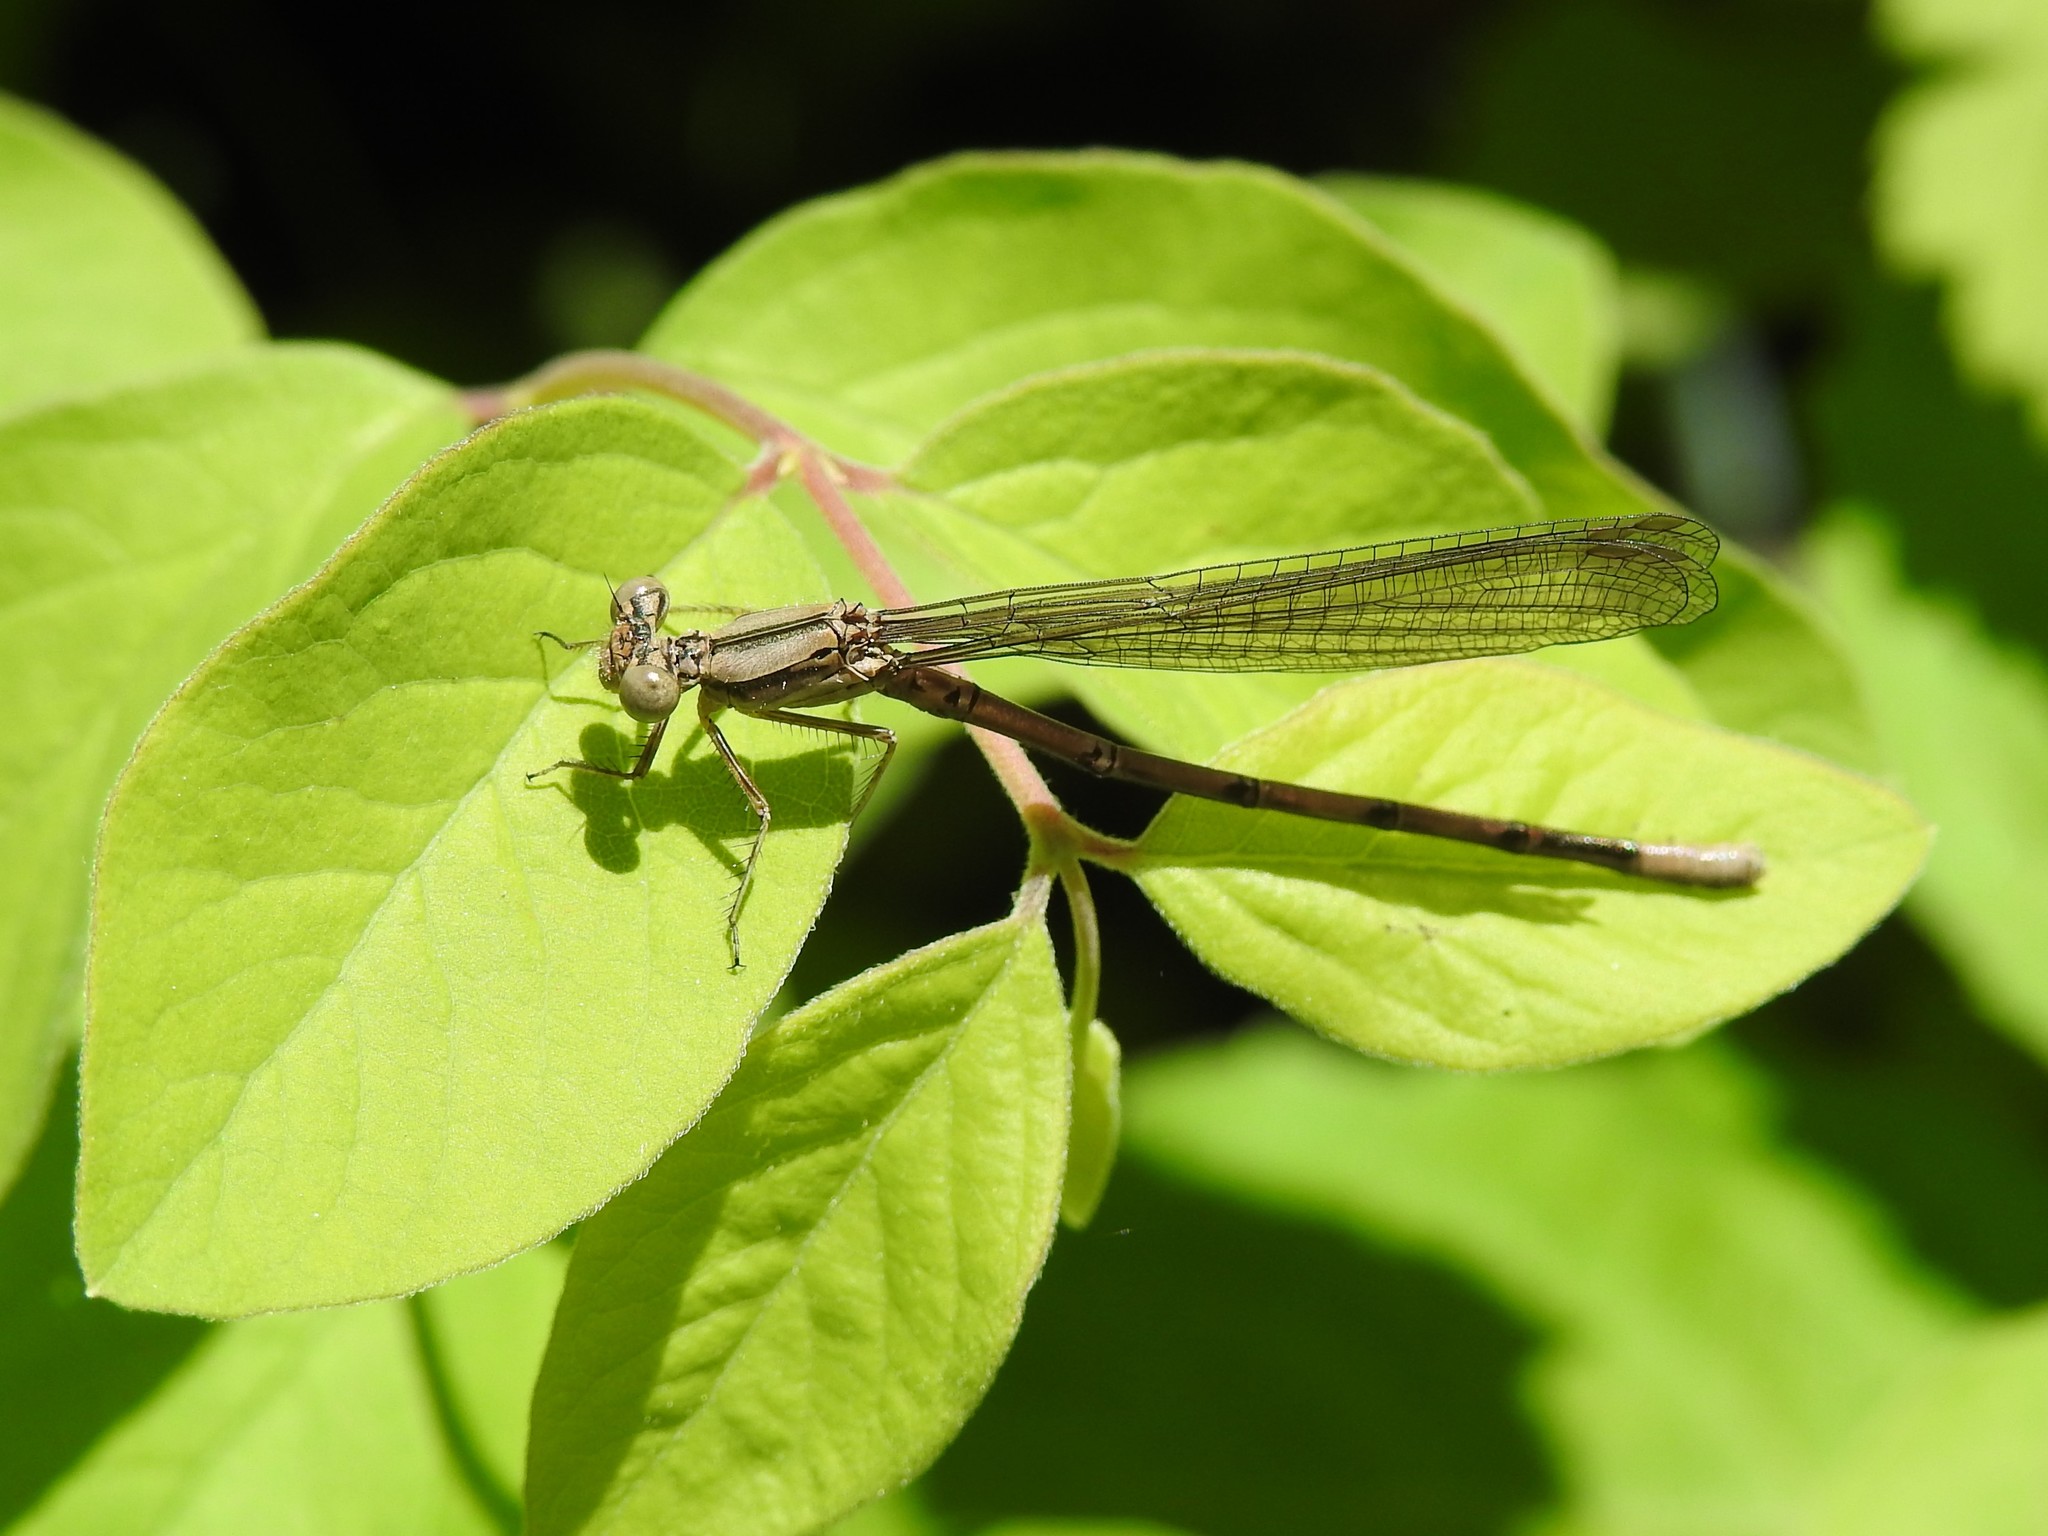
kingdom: Animalia
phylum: Arthropoda
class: Insecta
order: Odonata
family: Coenagrionidae
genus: Argia
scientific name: Argia fumipennis
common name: Variable dancer
